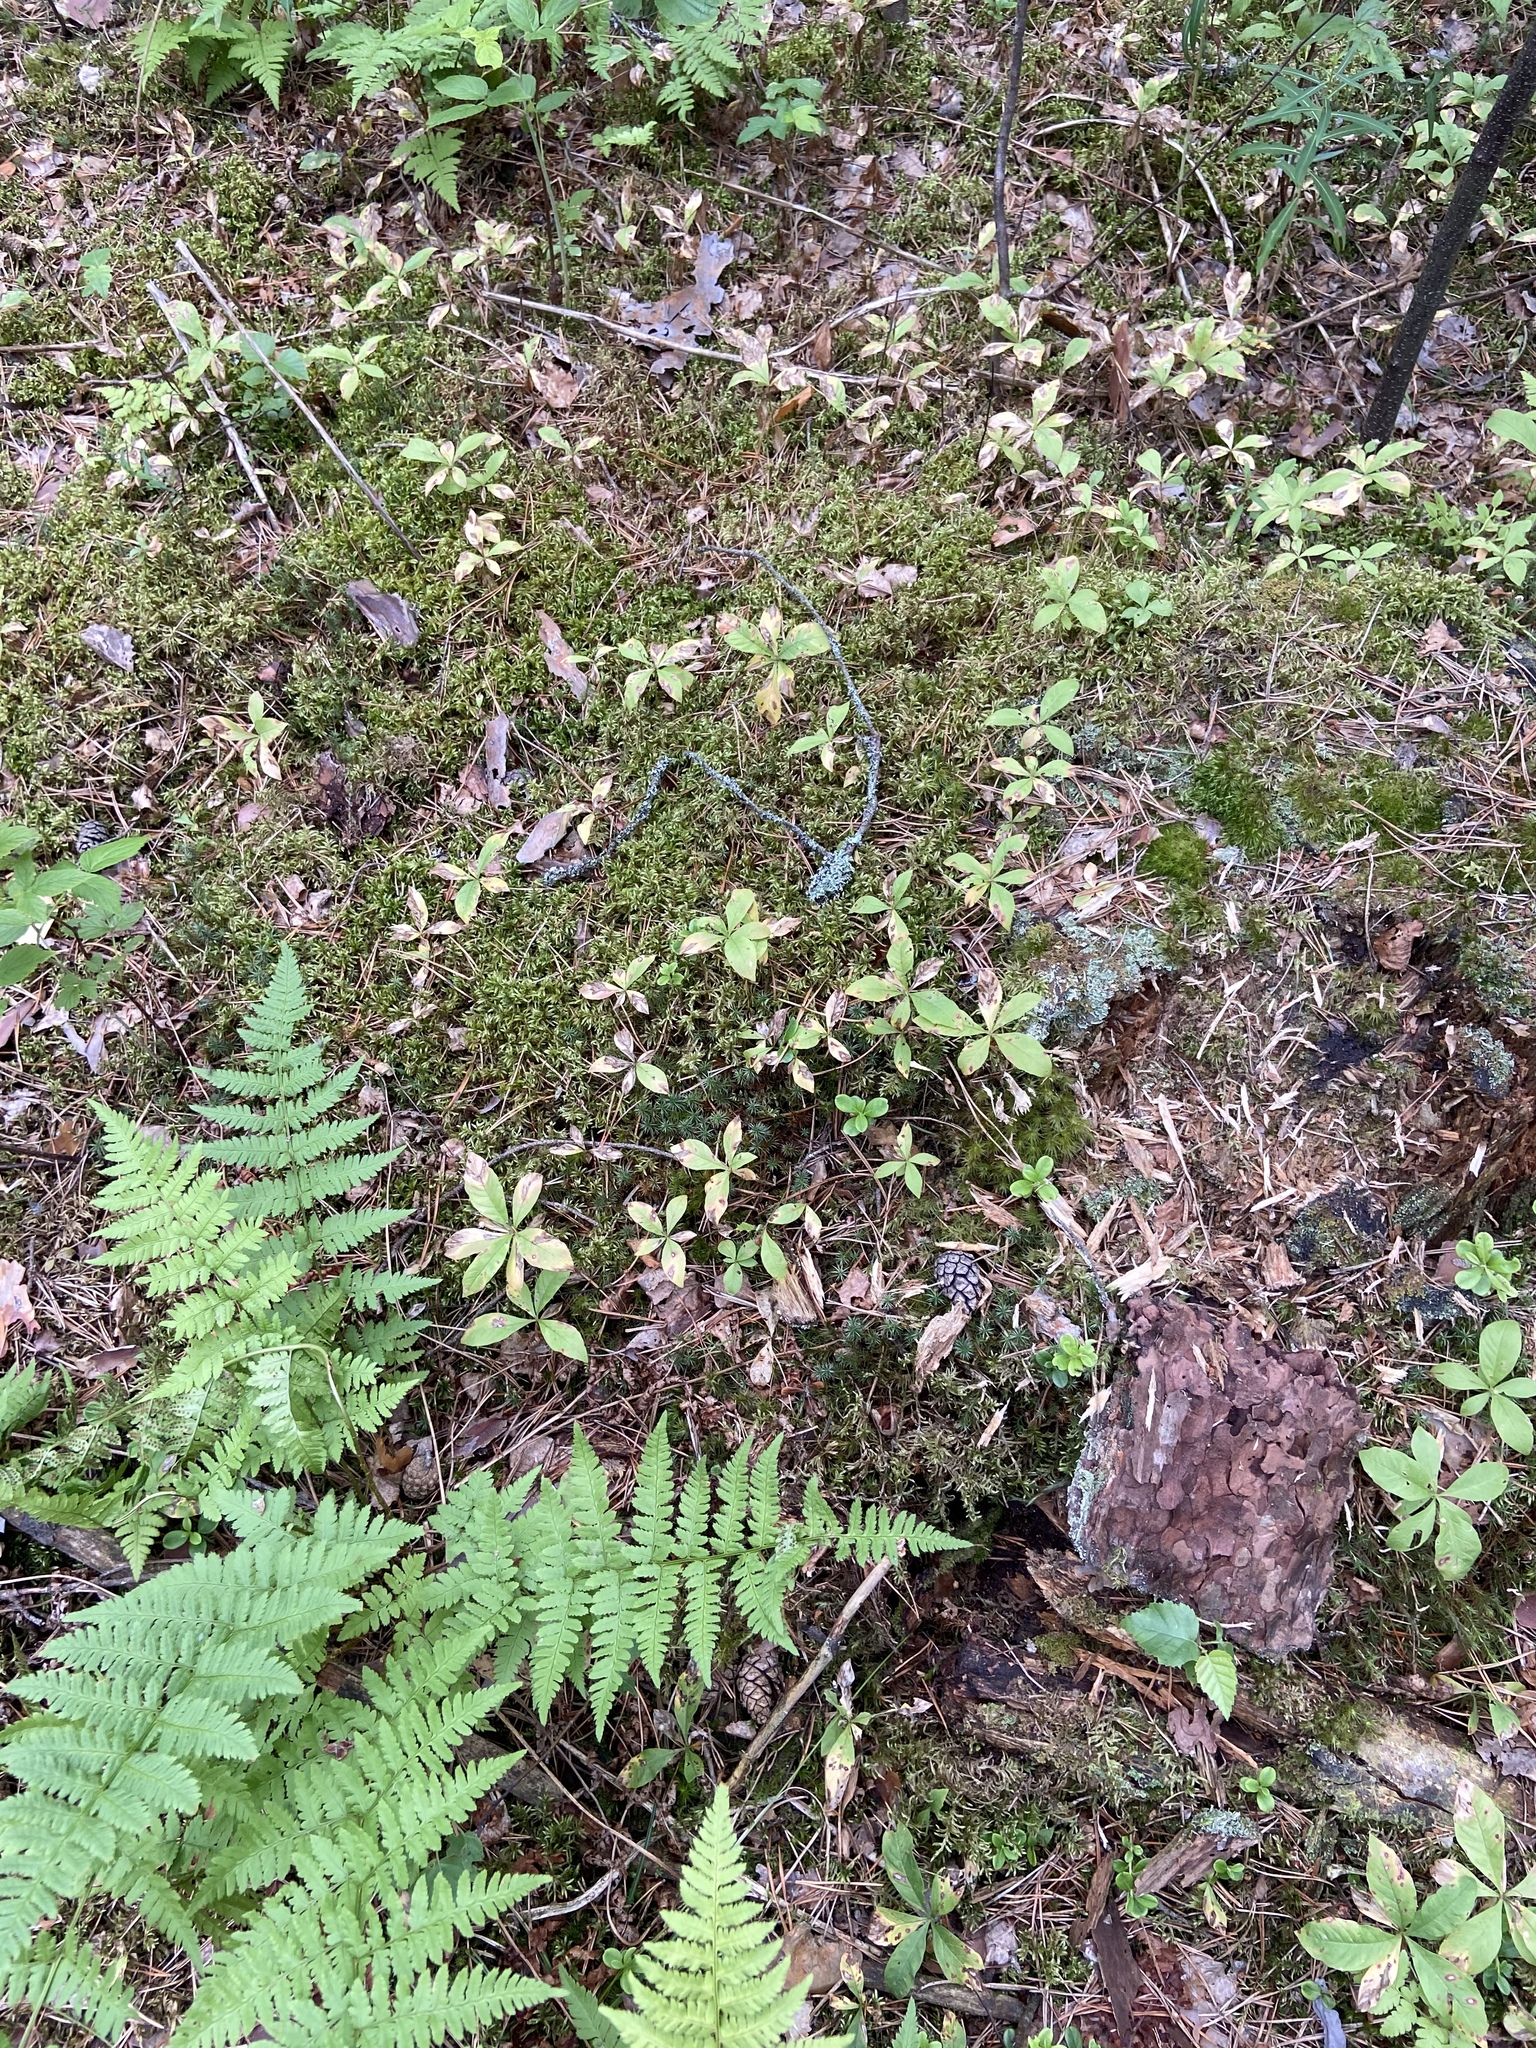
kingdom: Plantae
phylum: Tracheophyta
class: Magnoliopsida
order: Ericales
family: Primulaceae
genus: Lysimachia
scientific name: Lysimachia europaea
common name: Arctic starflower
